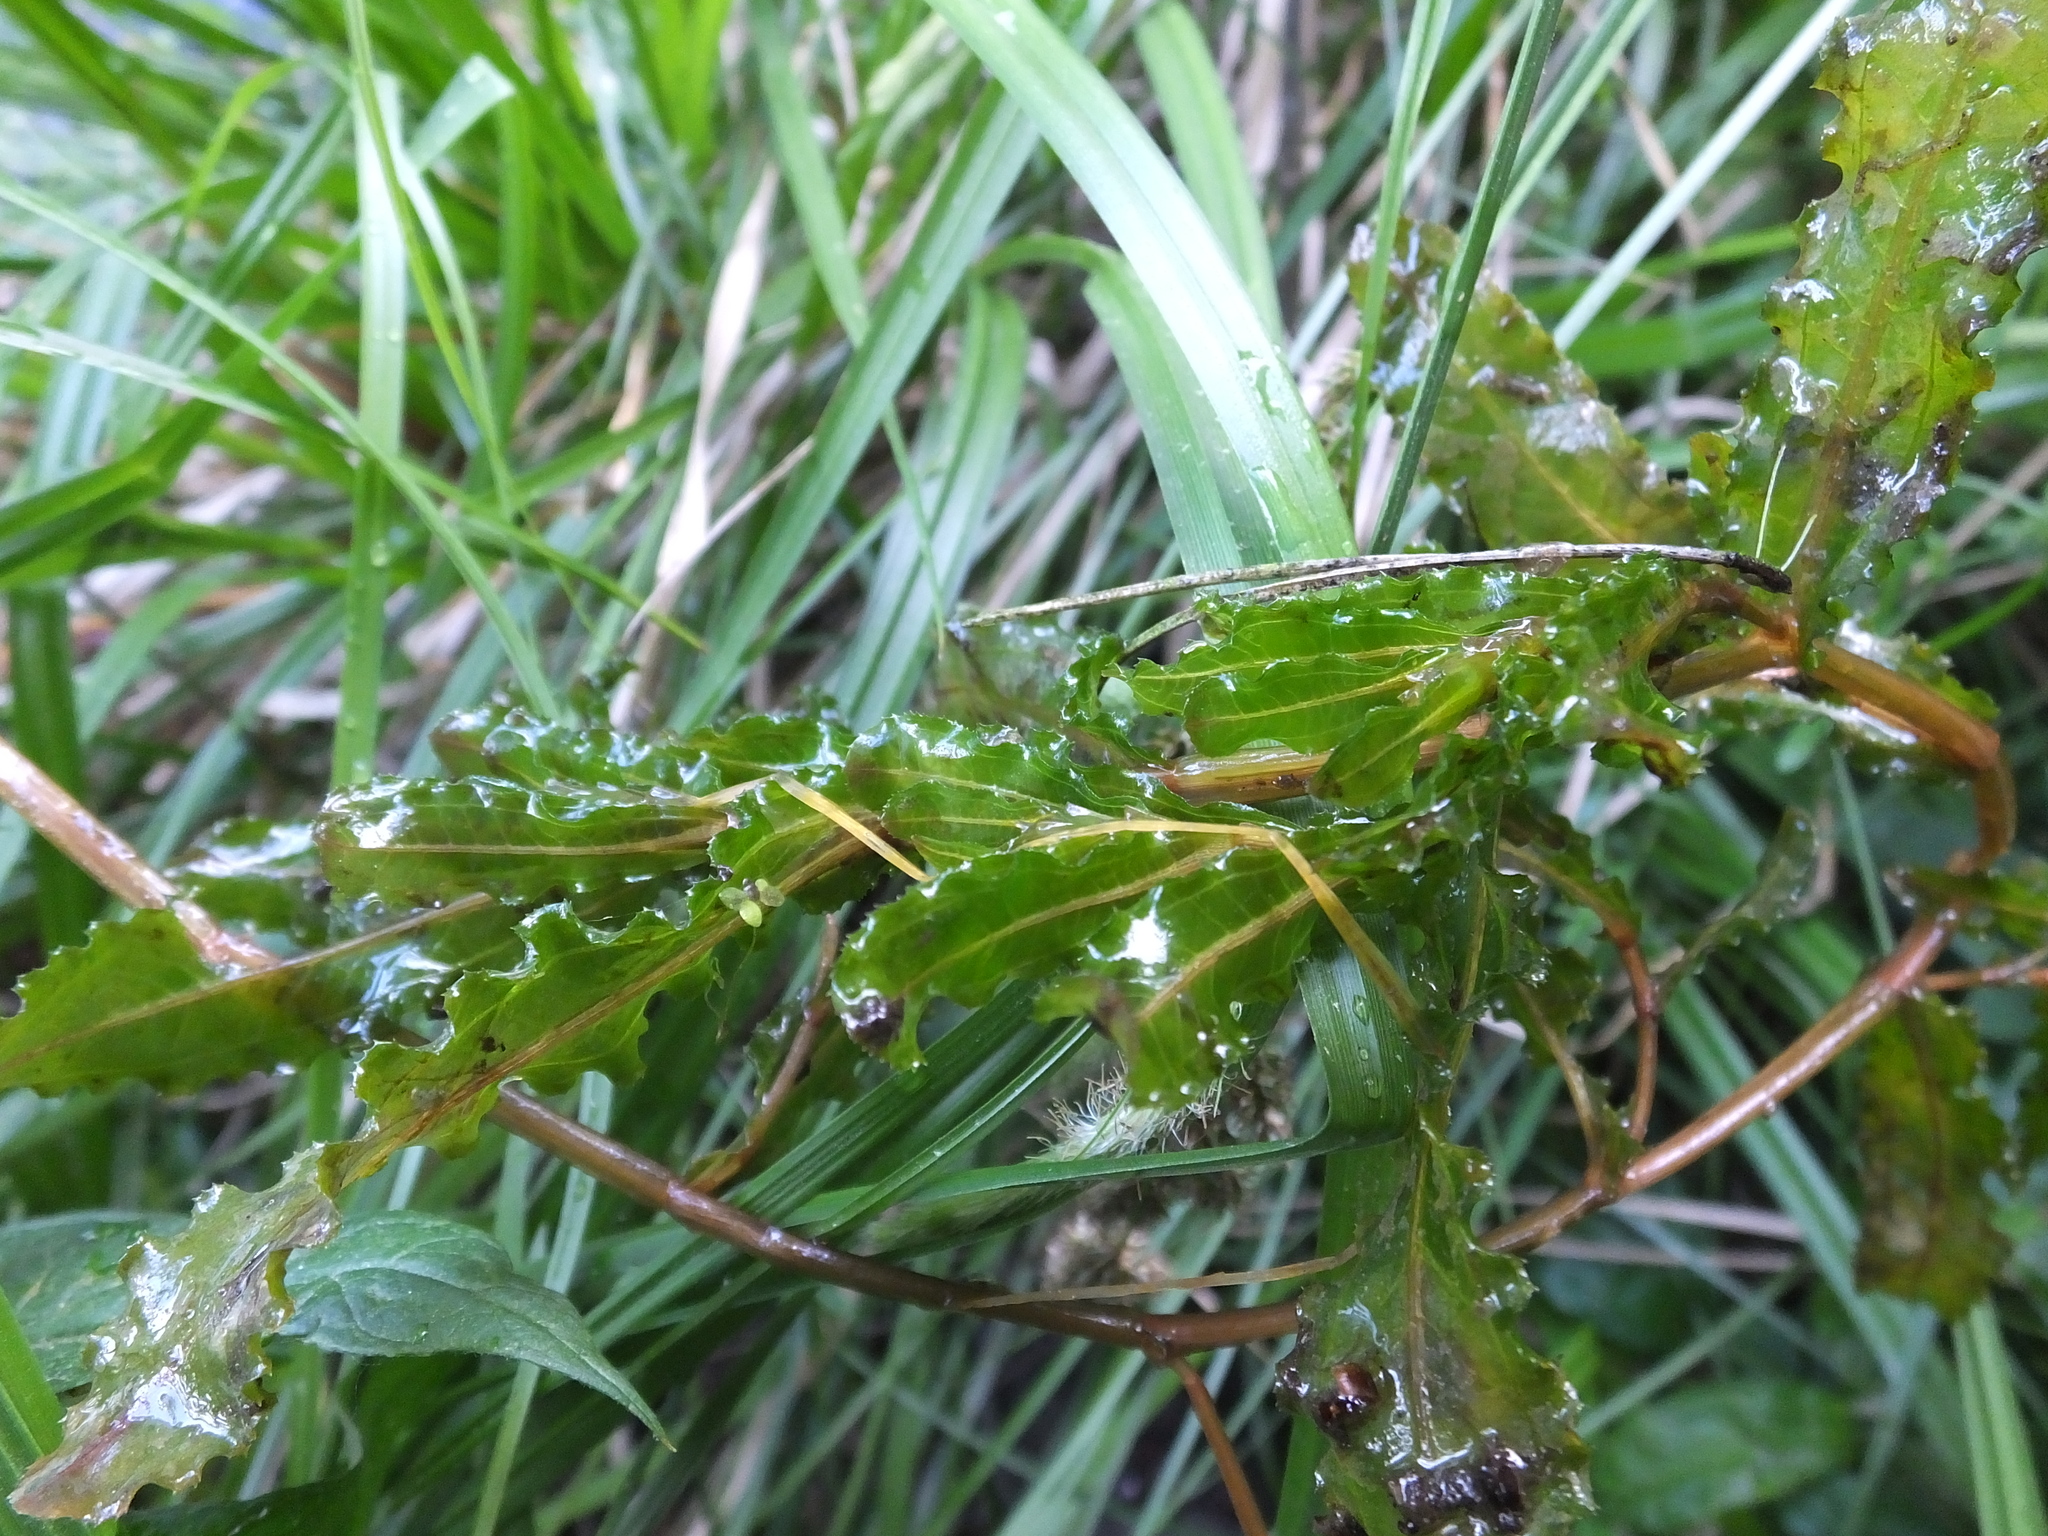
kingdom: Plantae
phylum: Tracheophyta
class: Liliopsida
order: Alismatales
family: Potamogetonaceae
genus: Potamogeton
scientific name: Potamogeton crispus
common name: Curled pondweed
